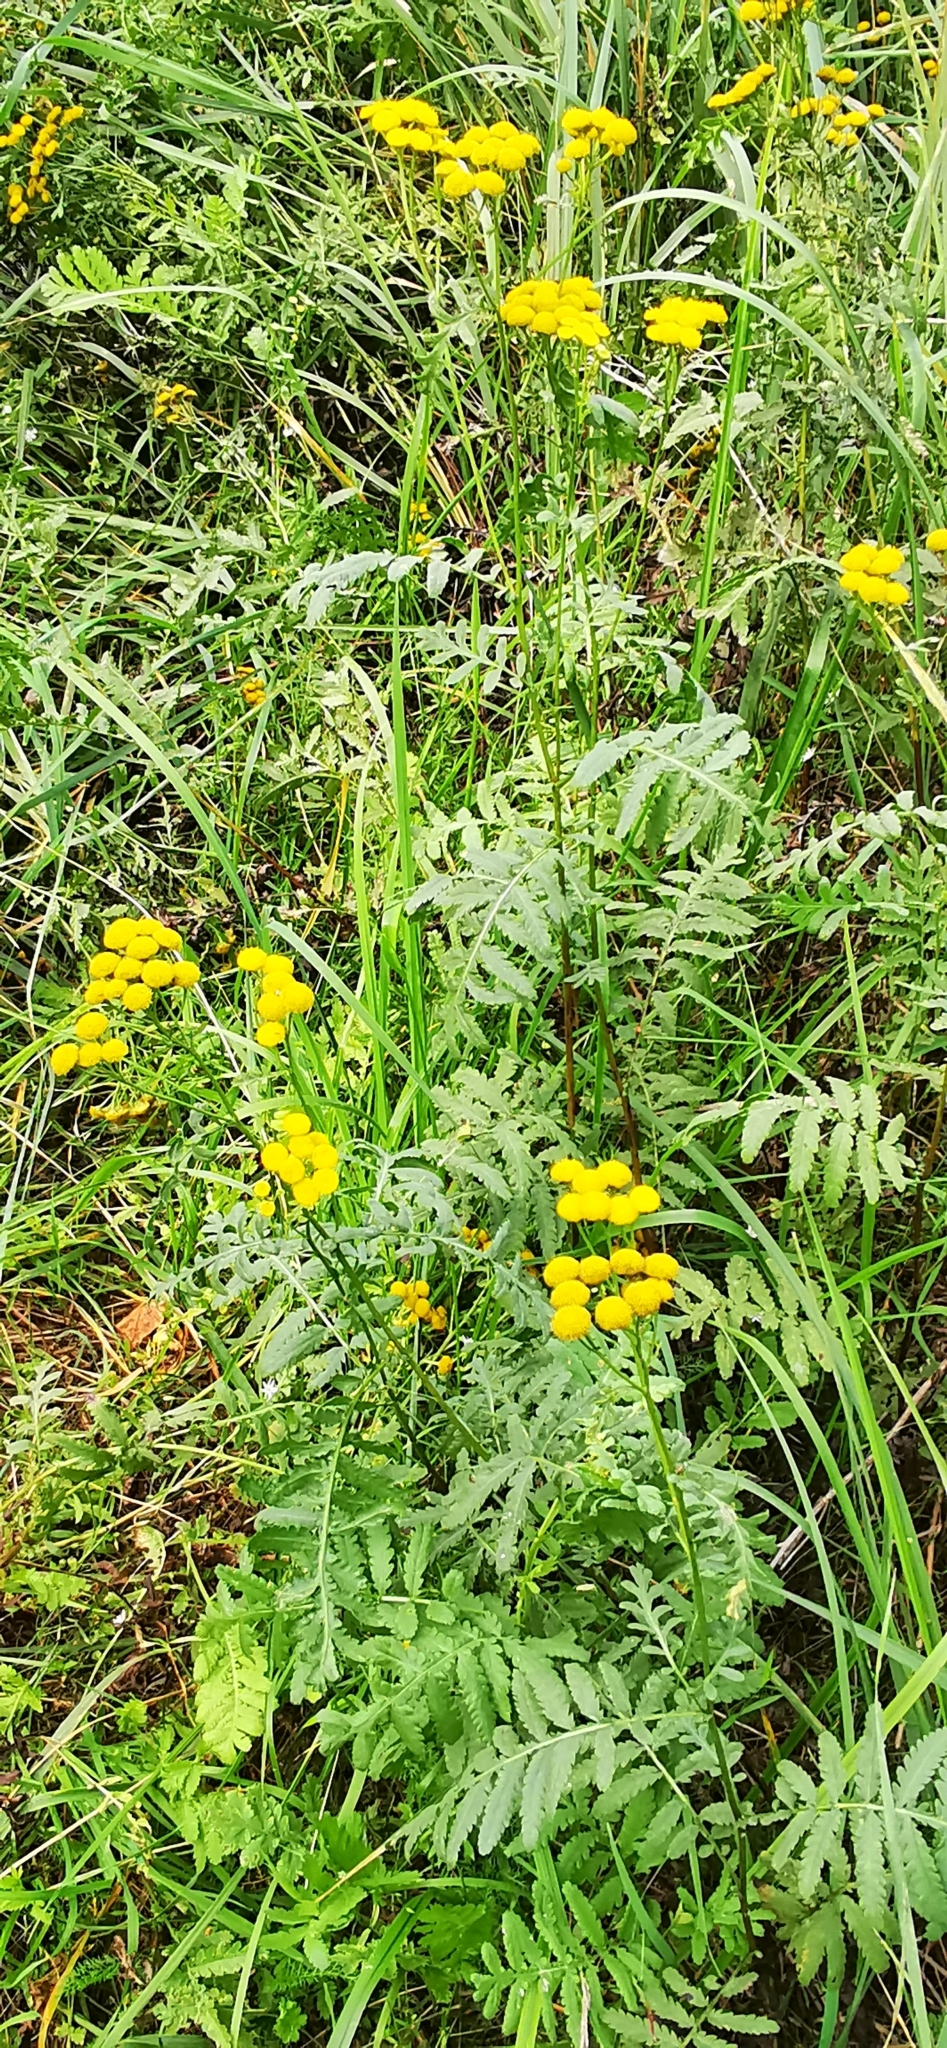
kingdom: Plantae
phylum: Tracheophyta
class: Magnoliopsida
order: Asterales
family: Asteraceae
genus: Tanacetum
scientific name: Tanacetum vulgare
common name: Common tansy
